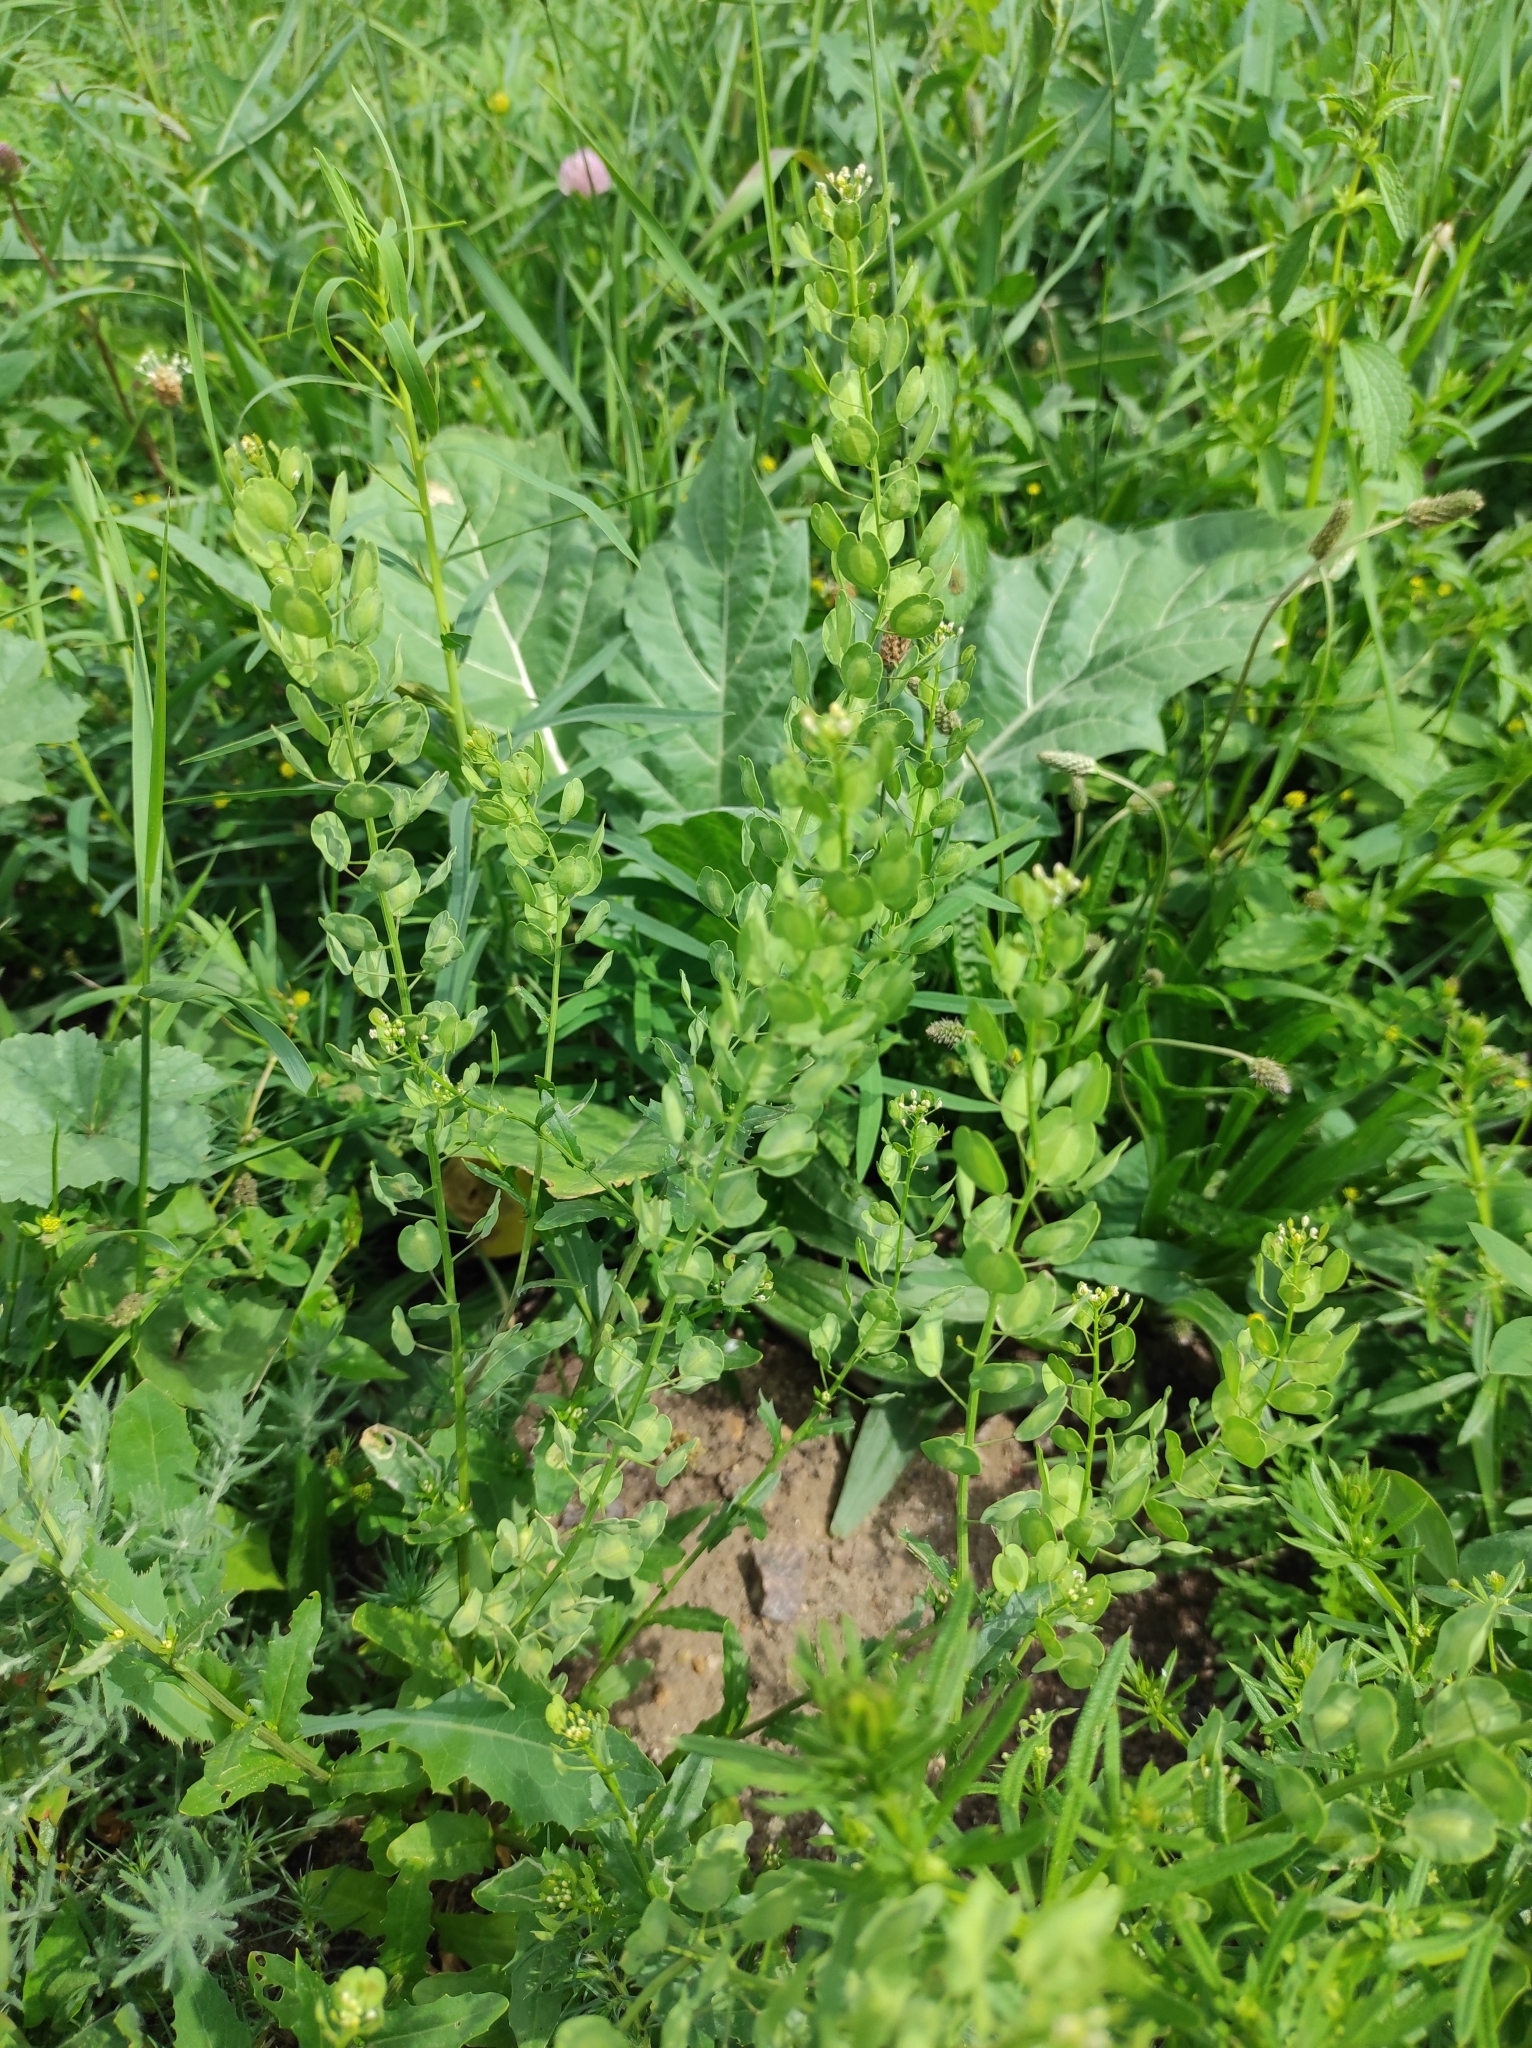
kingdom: Plantae
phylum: Tracheophyta
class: Magnoliopsida
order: Brassicales
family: Brassicaceae
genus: Thlaspi
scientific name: Thlaspi arvense
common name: Field pennycress
